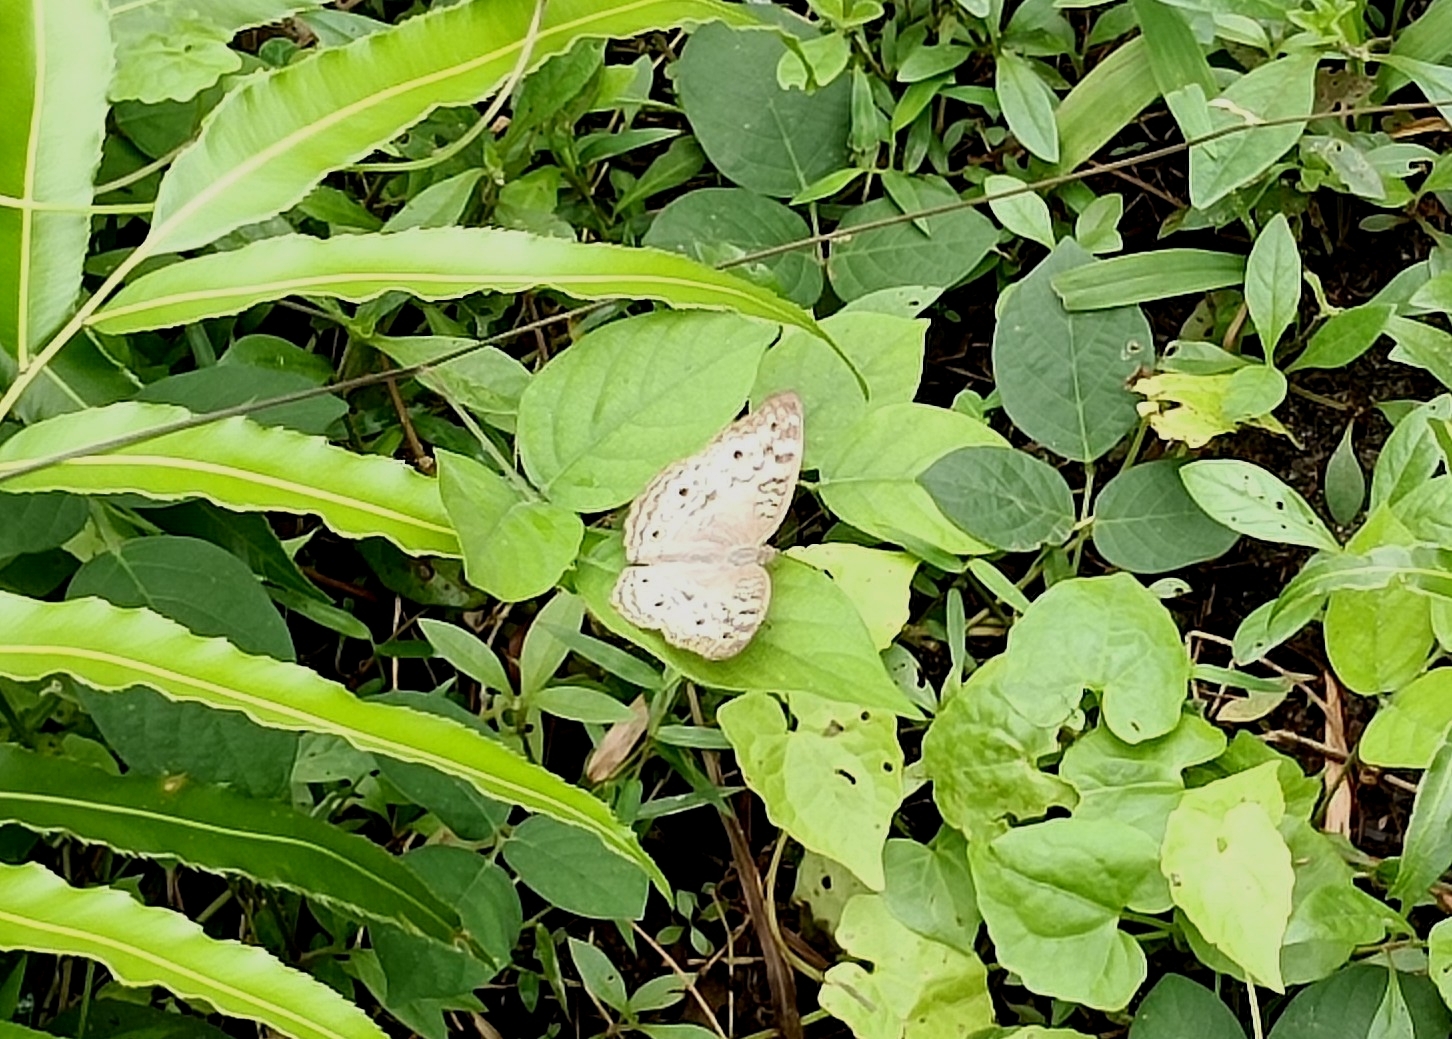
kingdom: Animalia
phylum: Arthropoda
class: Insecta
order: Lepidoptera
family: Nymphalidae
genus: Junonia
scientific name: Junonia atlites
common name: Grey pansy
